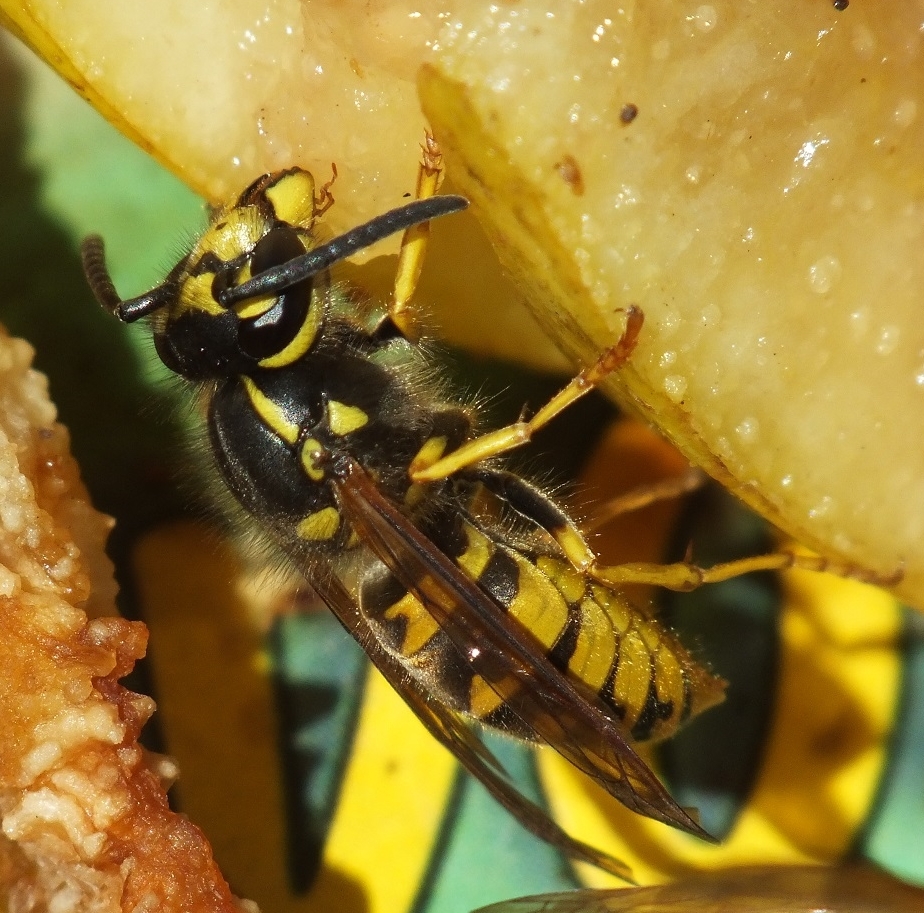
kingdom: Animalia
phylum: Arthropoda
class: Insecta
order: Hymenoptera
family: Vespidae
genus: Vespula
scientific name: Vespula germanica
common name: German wasp
